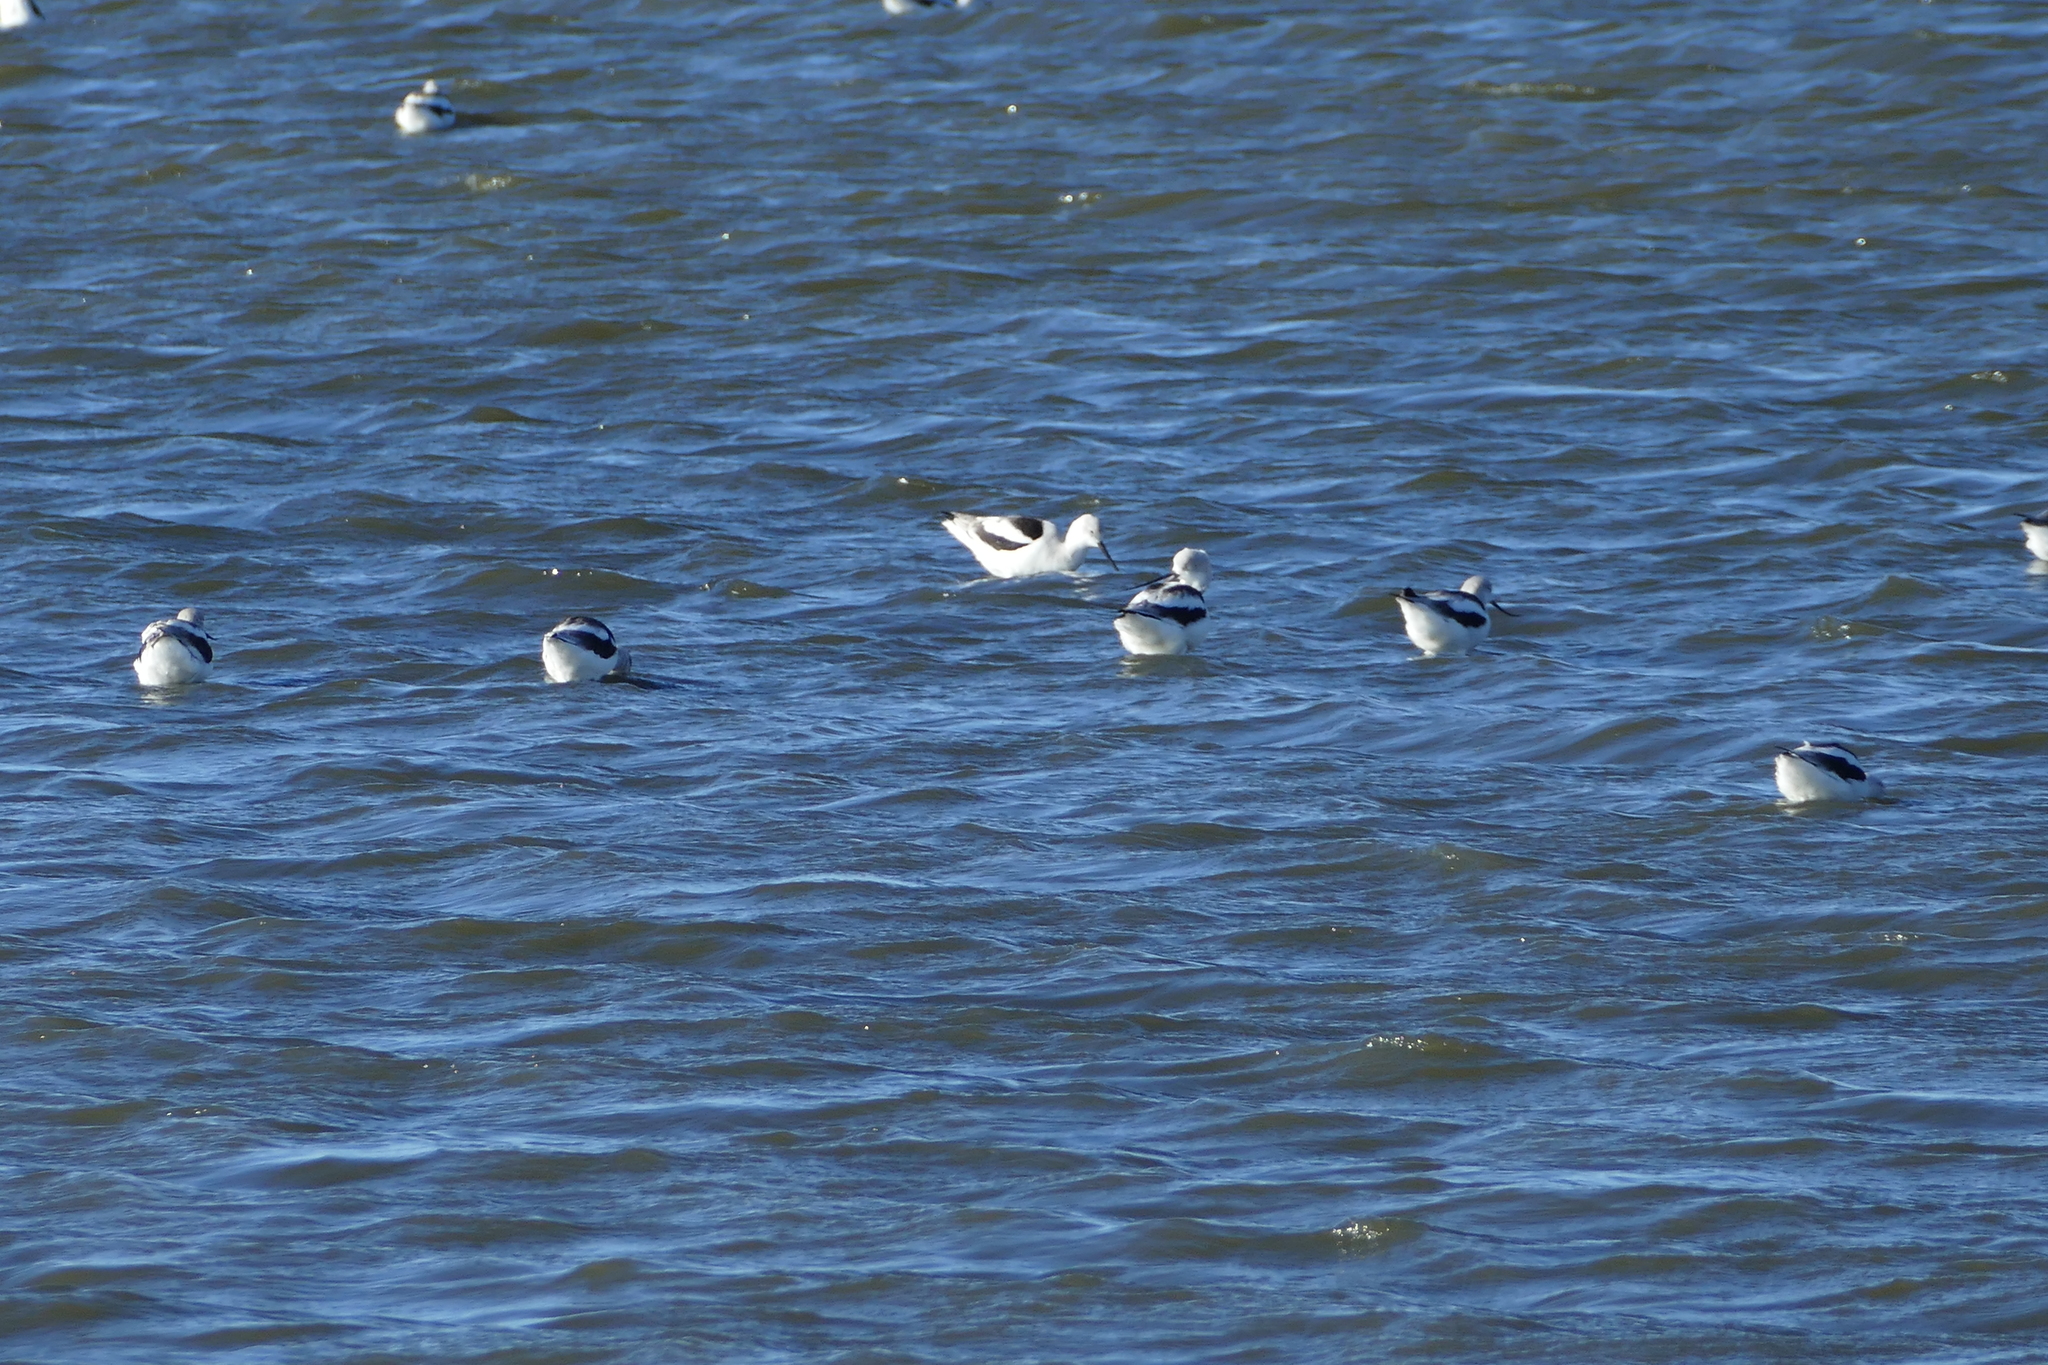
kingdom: Animalia
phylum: Chordata
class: Aves
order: Charadriiformes
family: Recurvirostridae
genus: Recurvirostra
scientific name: Recurvirostra americana
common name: American avocet
